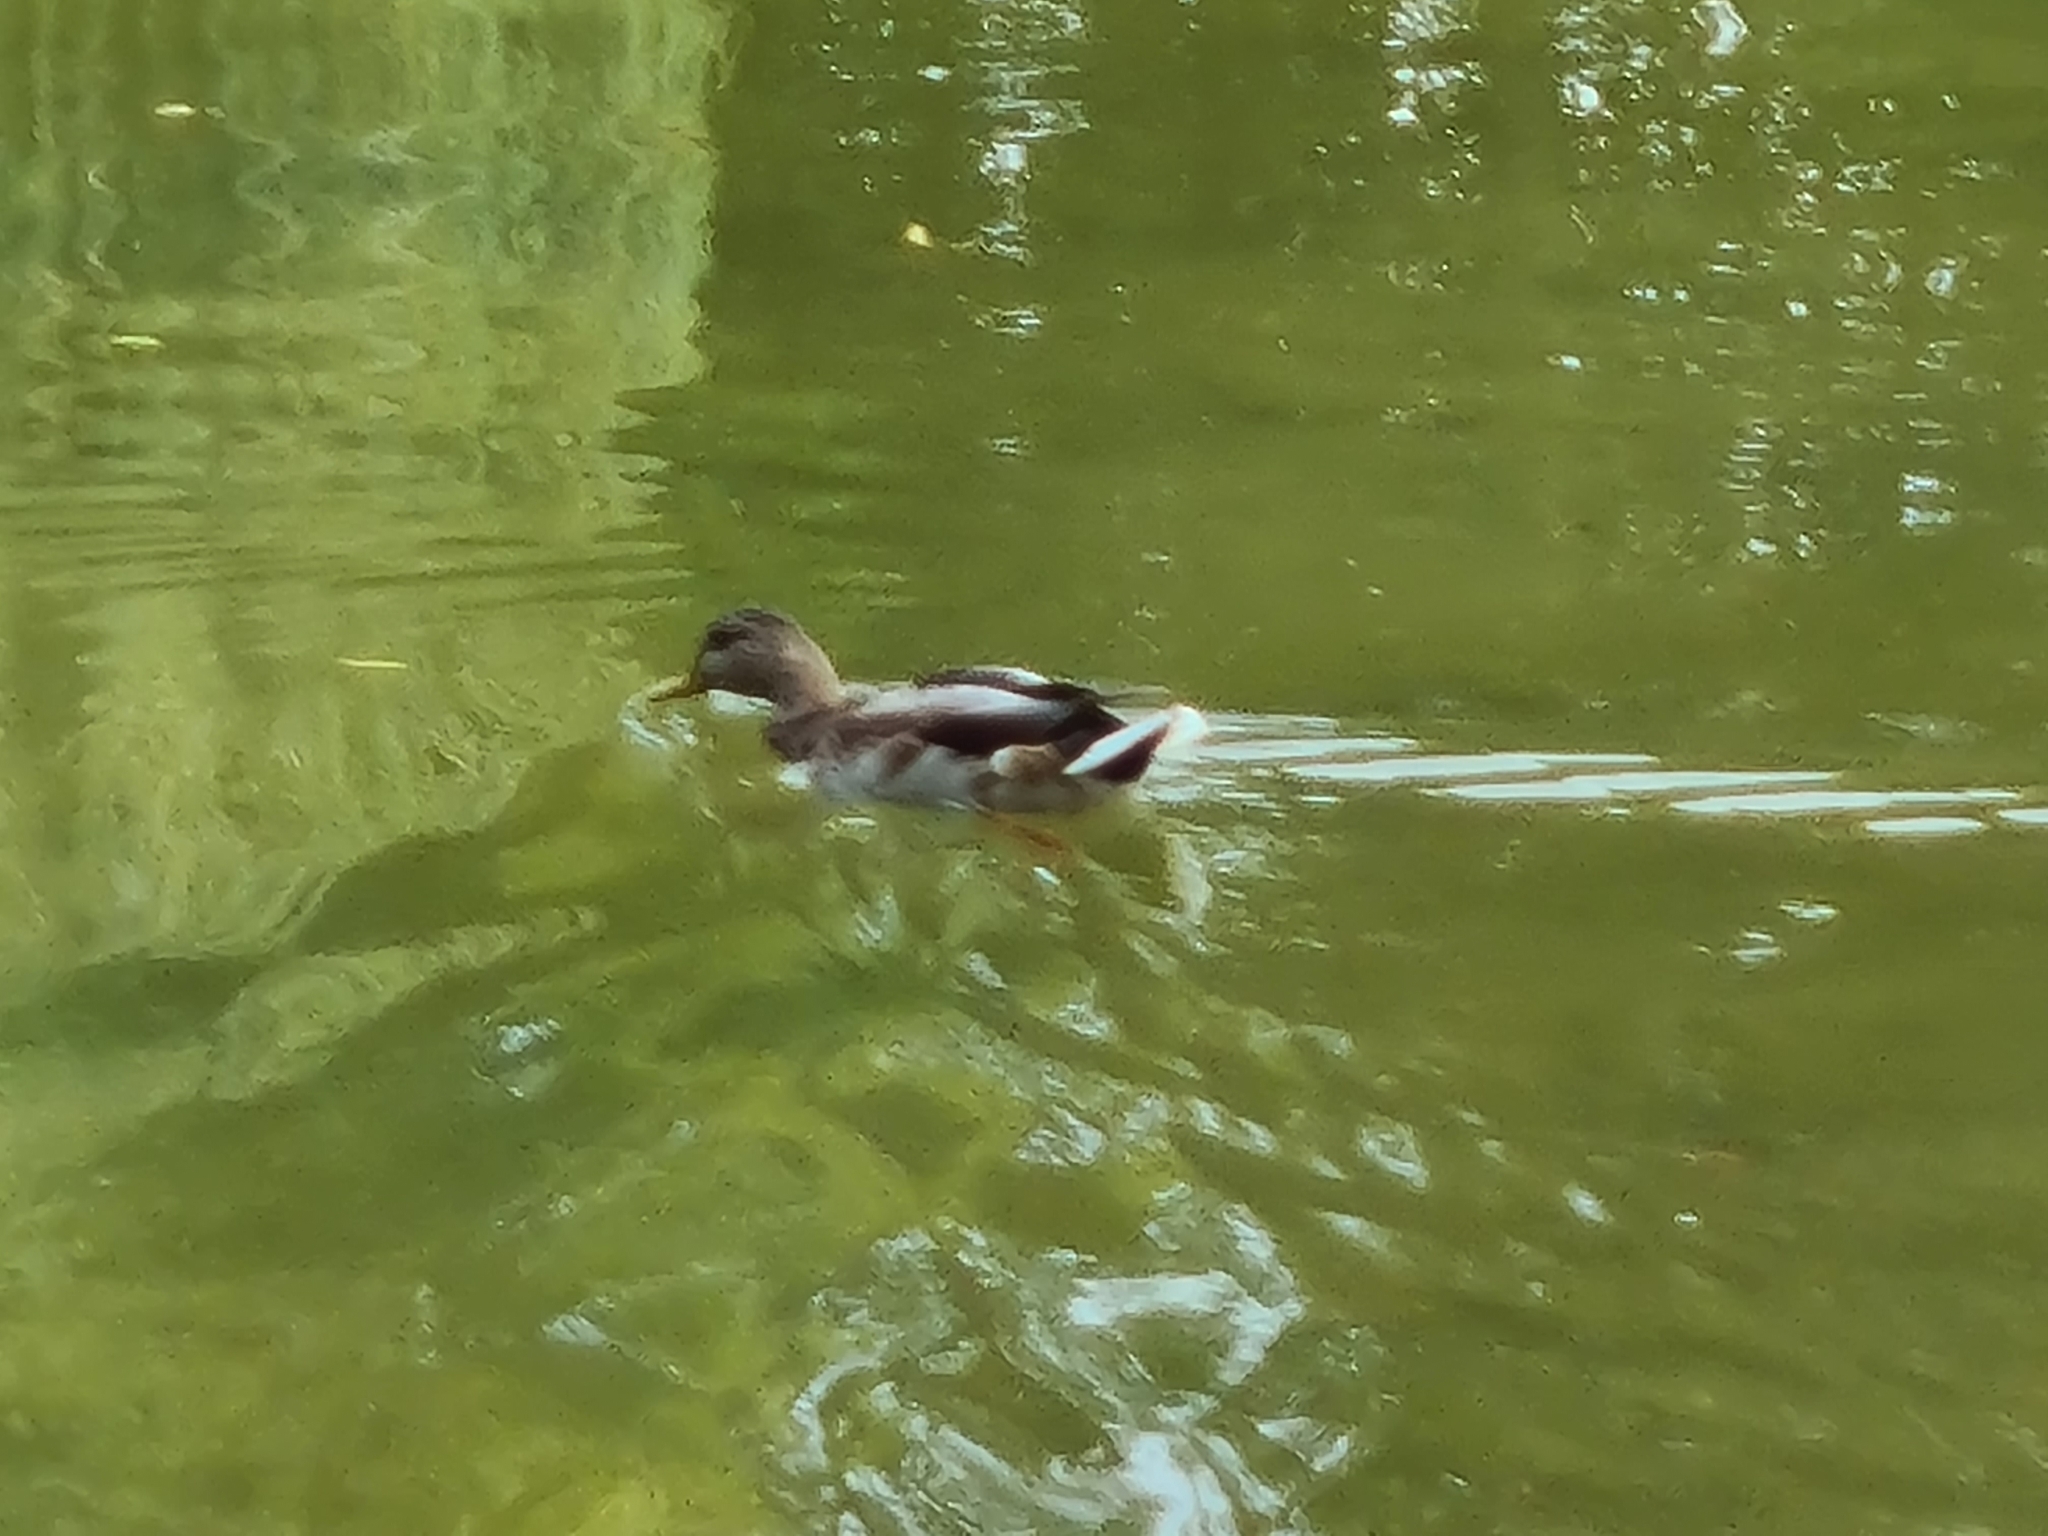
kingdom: Animalia
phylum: Chordata
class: Aves
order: Anseriformes
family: Anatidae
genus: Anas
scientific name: Anas platyrhynchos
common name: Mallard
